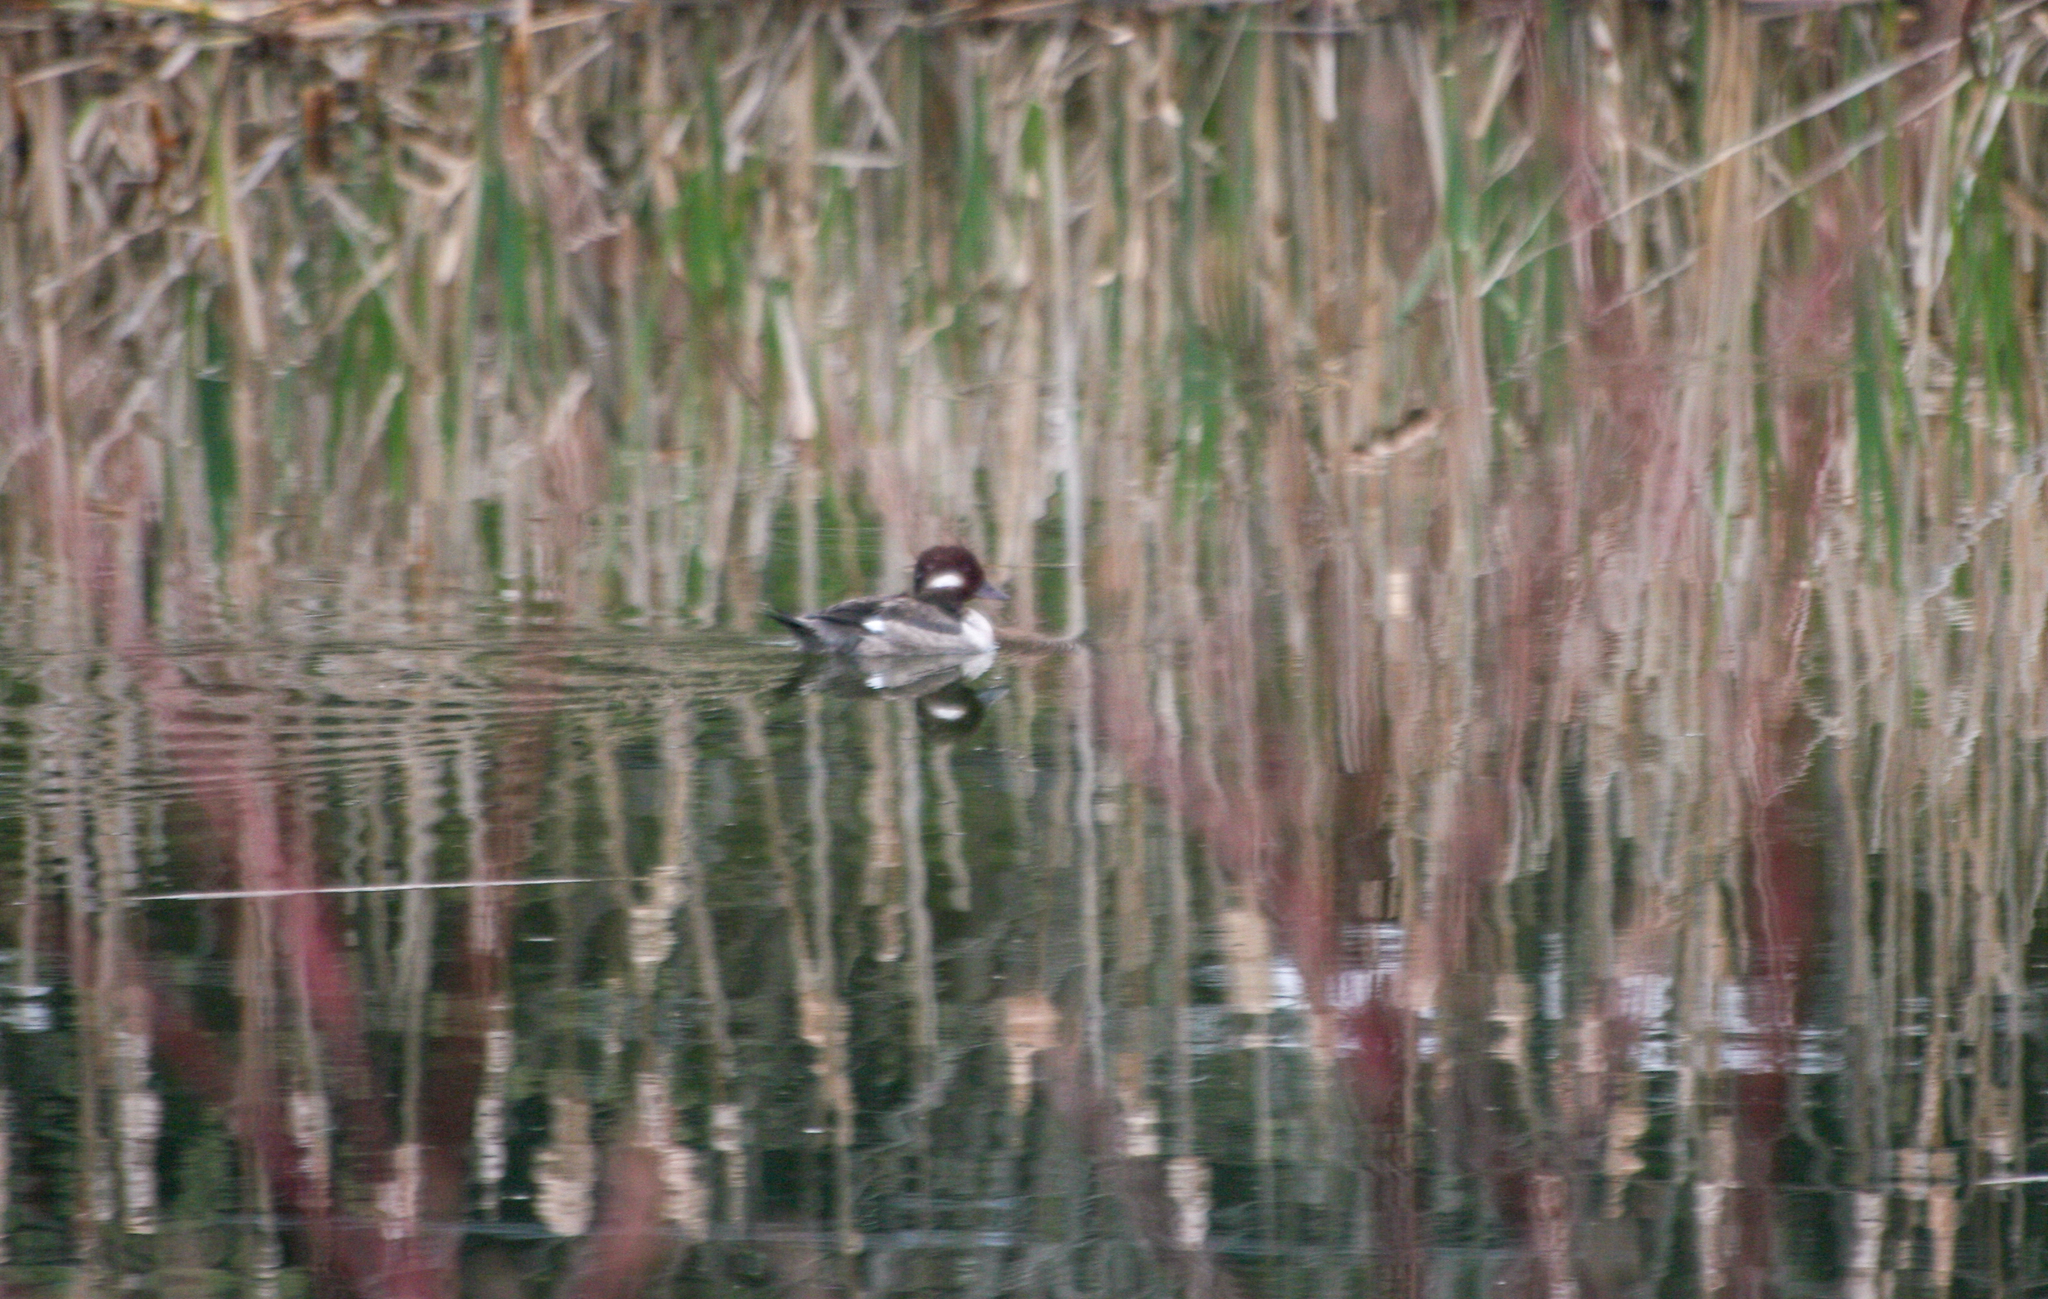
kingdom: Animalia
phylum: Chordata
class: Aves
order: Anseriformes
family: Anatidae
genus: Bucephala
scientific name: Bucephala albeola
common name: Bufflehead
